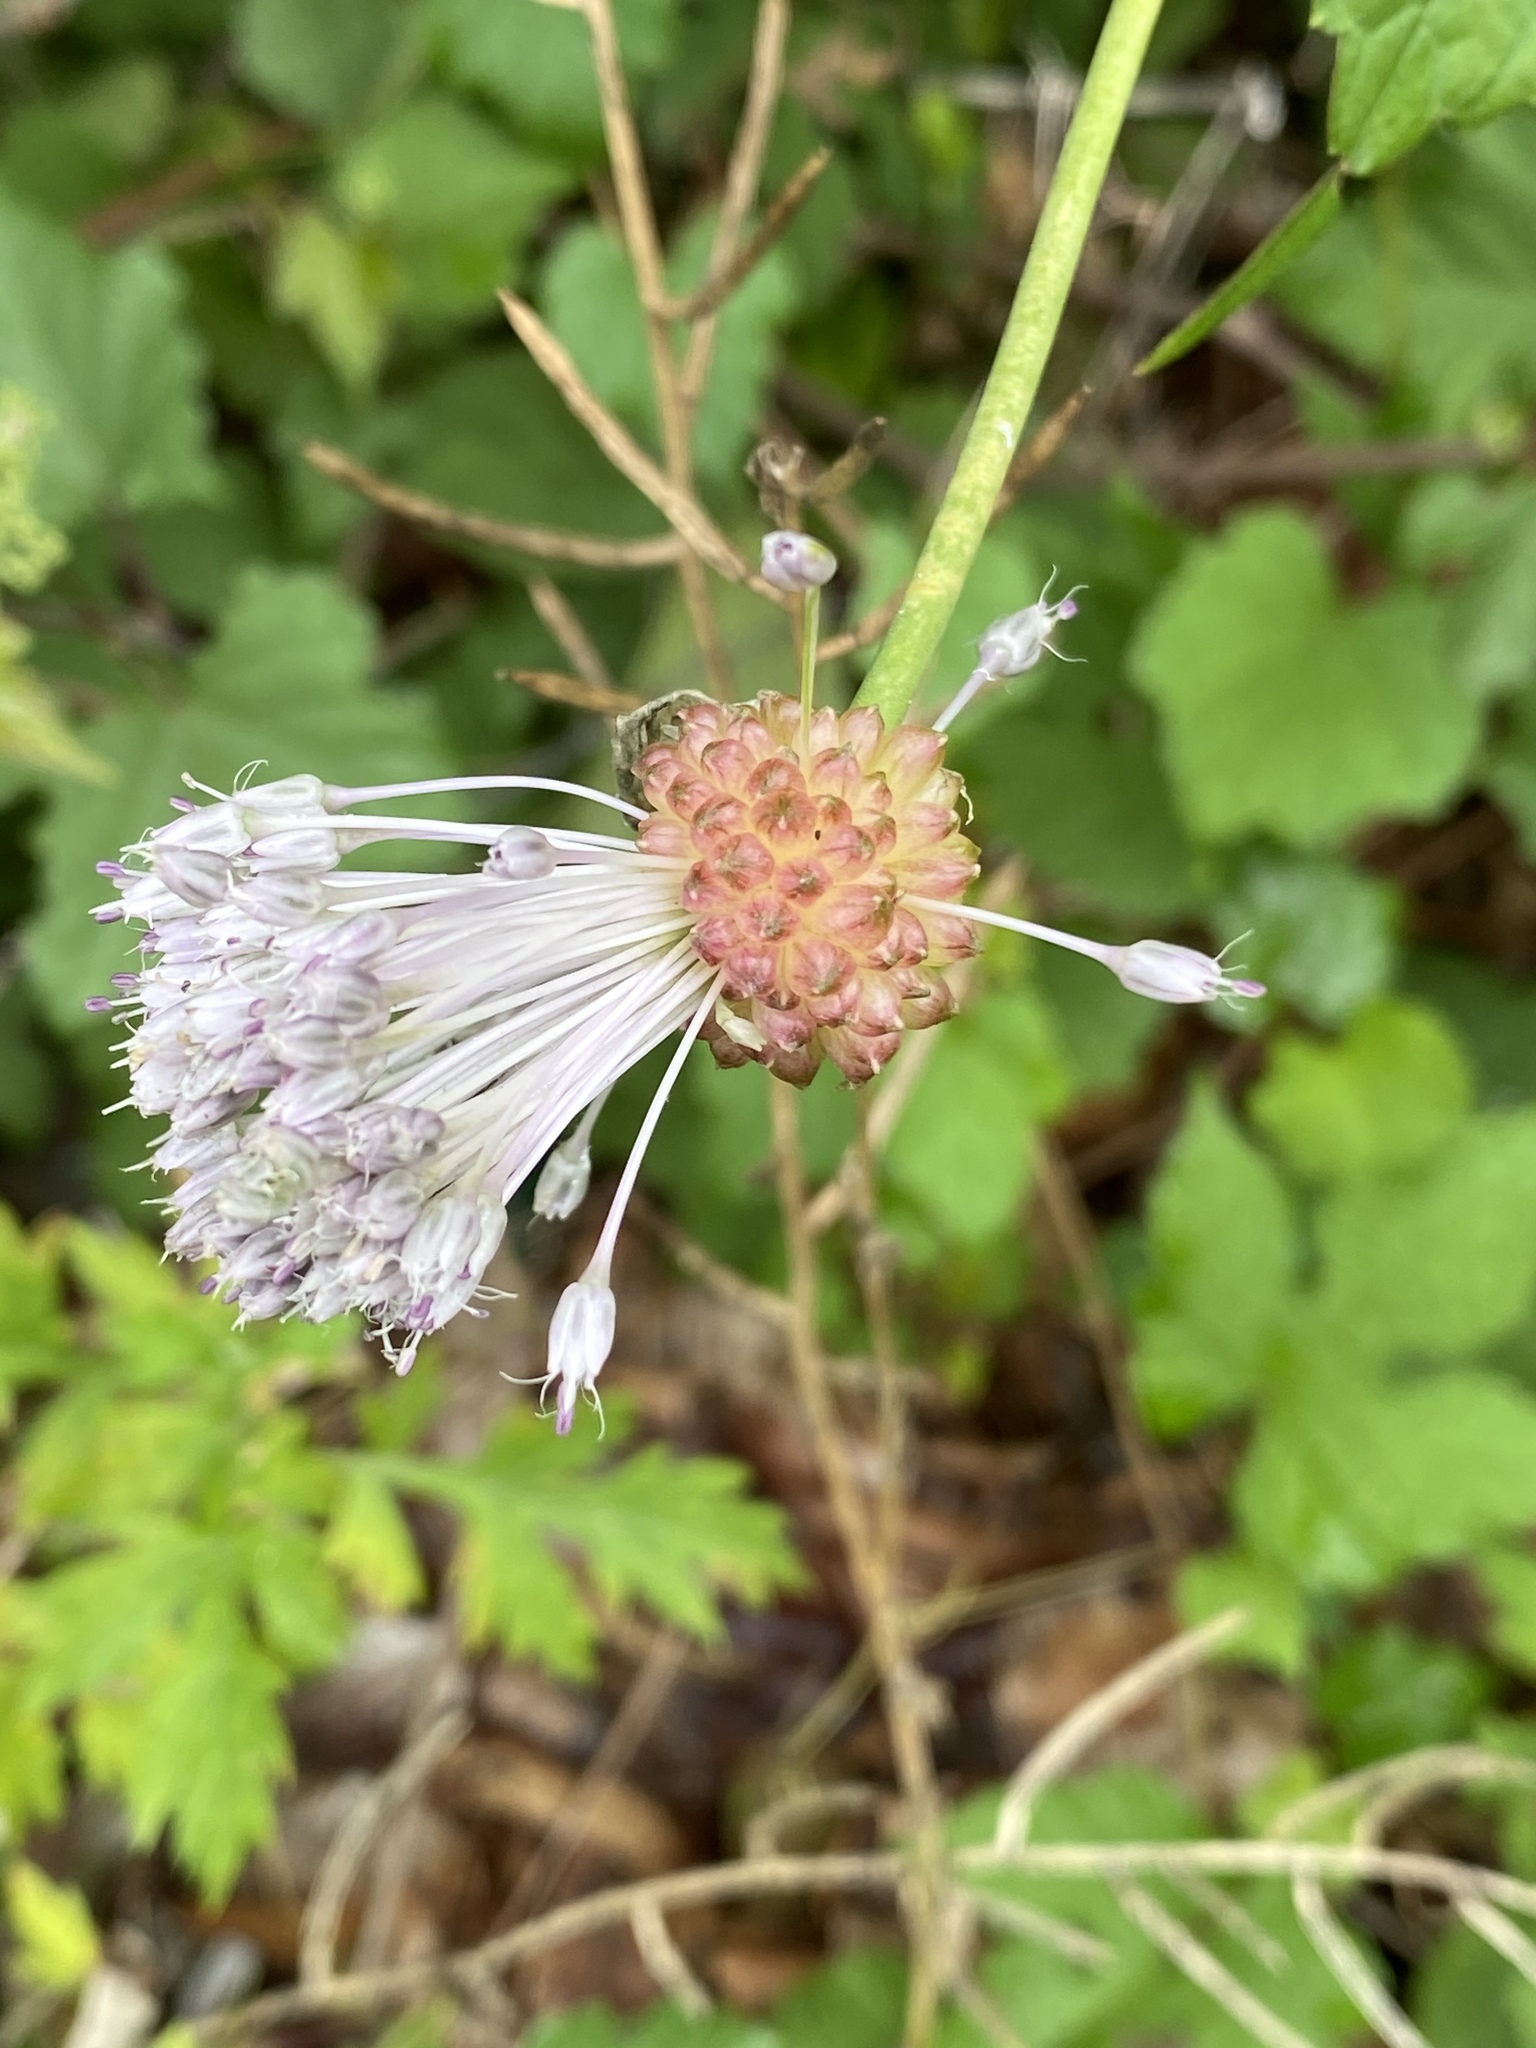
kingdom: Plantae
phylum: Tracheophyta
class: Liliopsida
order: Asparagales
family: Amaryllidaceae
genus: Allium
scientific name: Allium vineale
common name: Crow garlic
